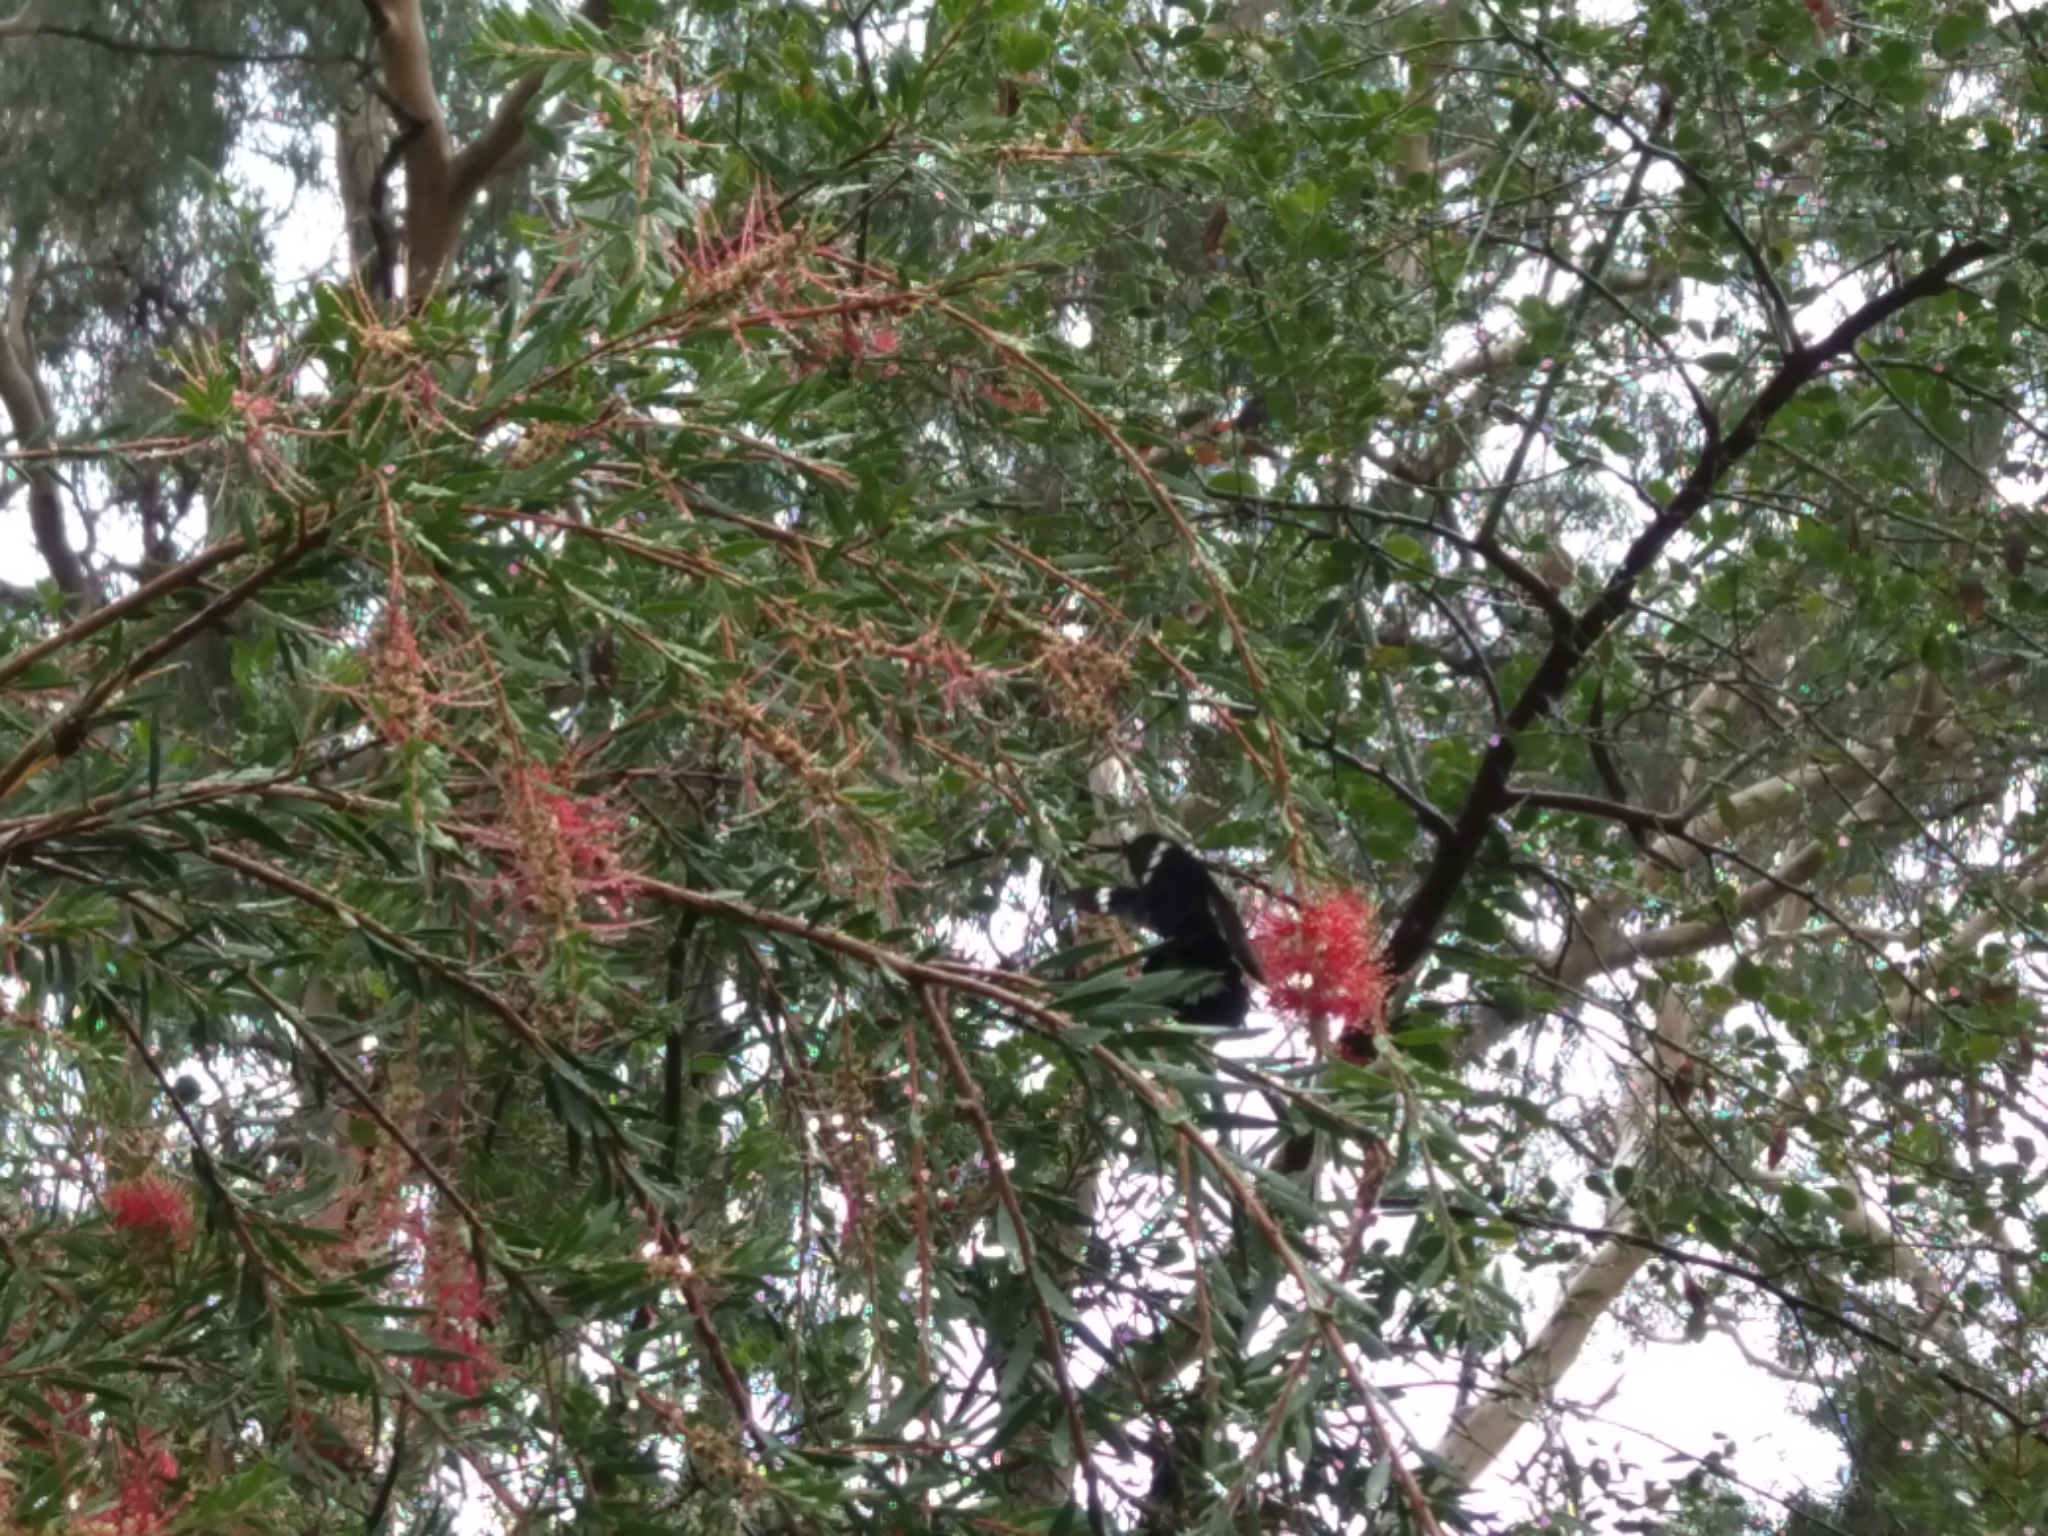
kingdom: Animalia
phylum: Arthropoda
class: Insecta
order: Lepidoptera
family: Papilionidae
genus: Papilio
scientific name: Papilio aegeus
